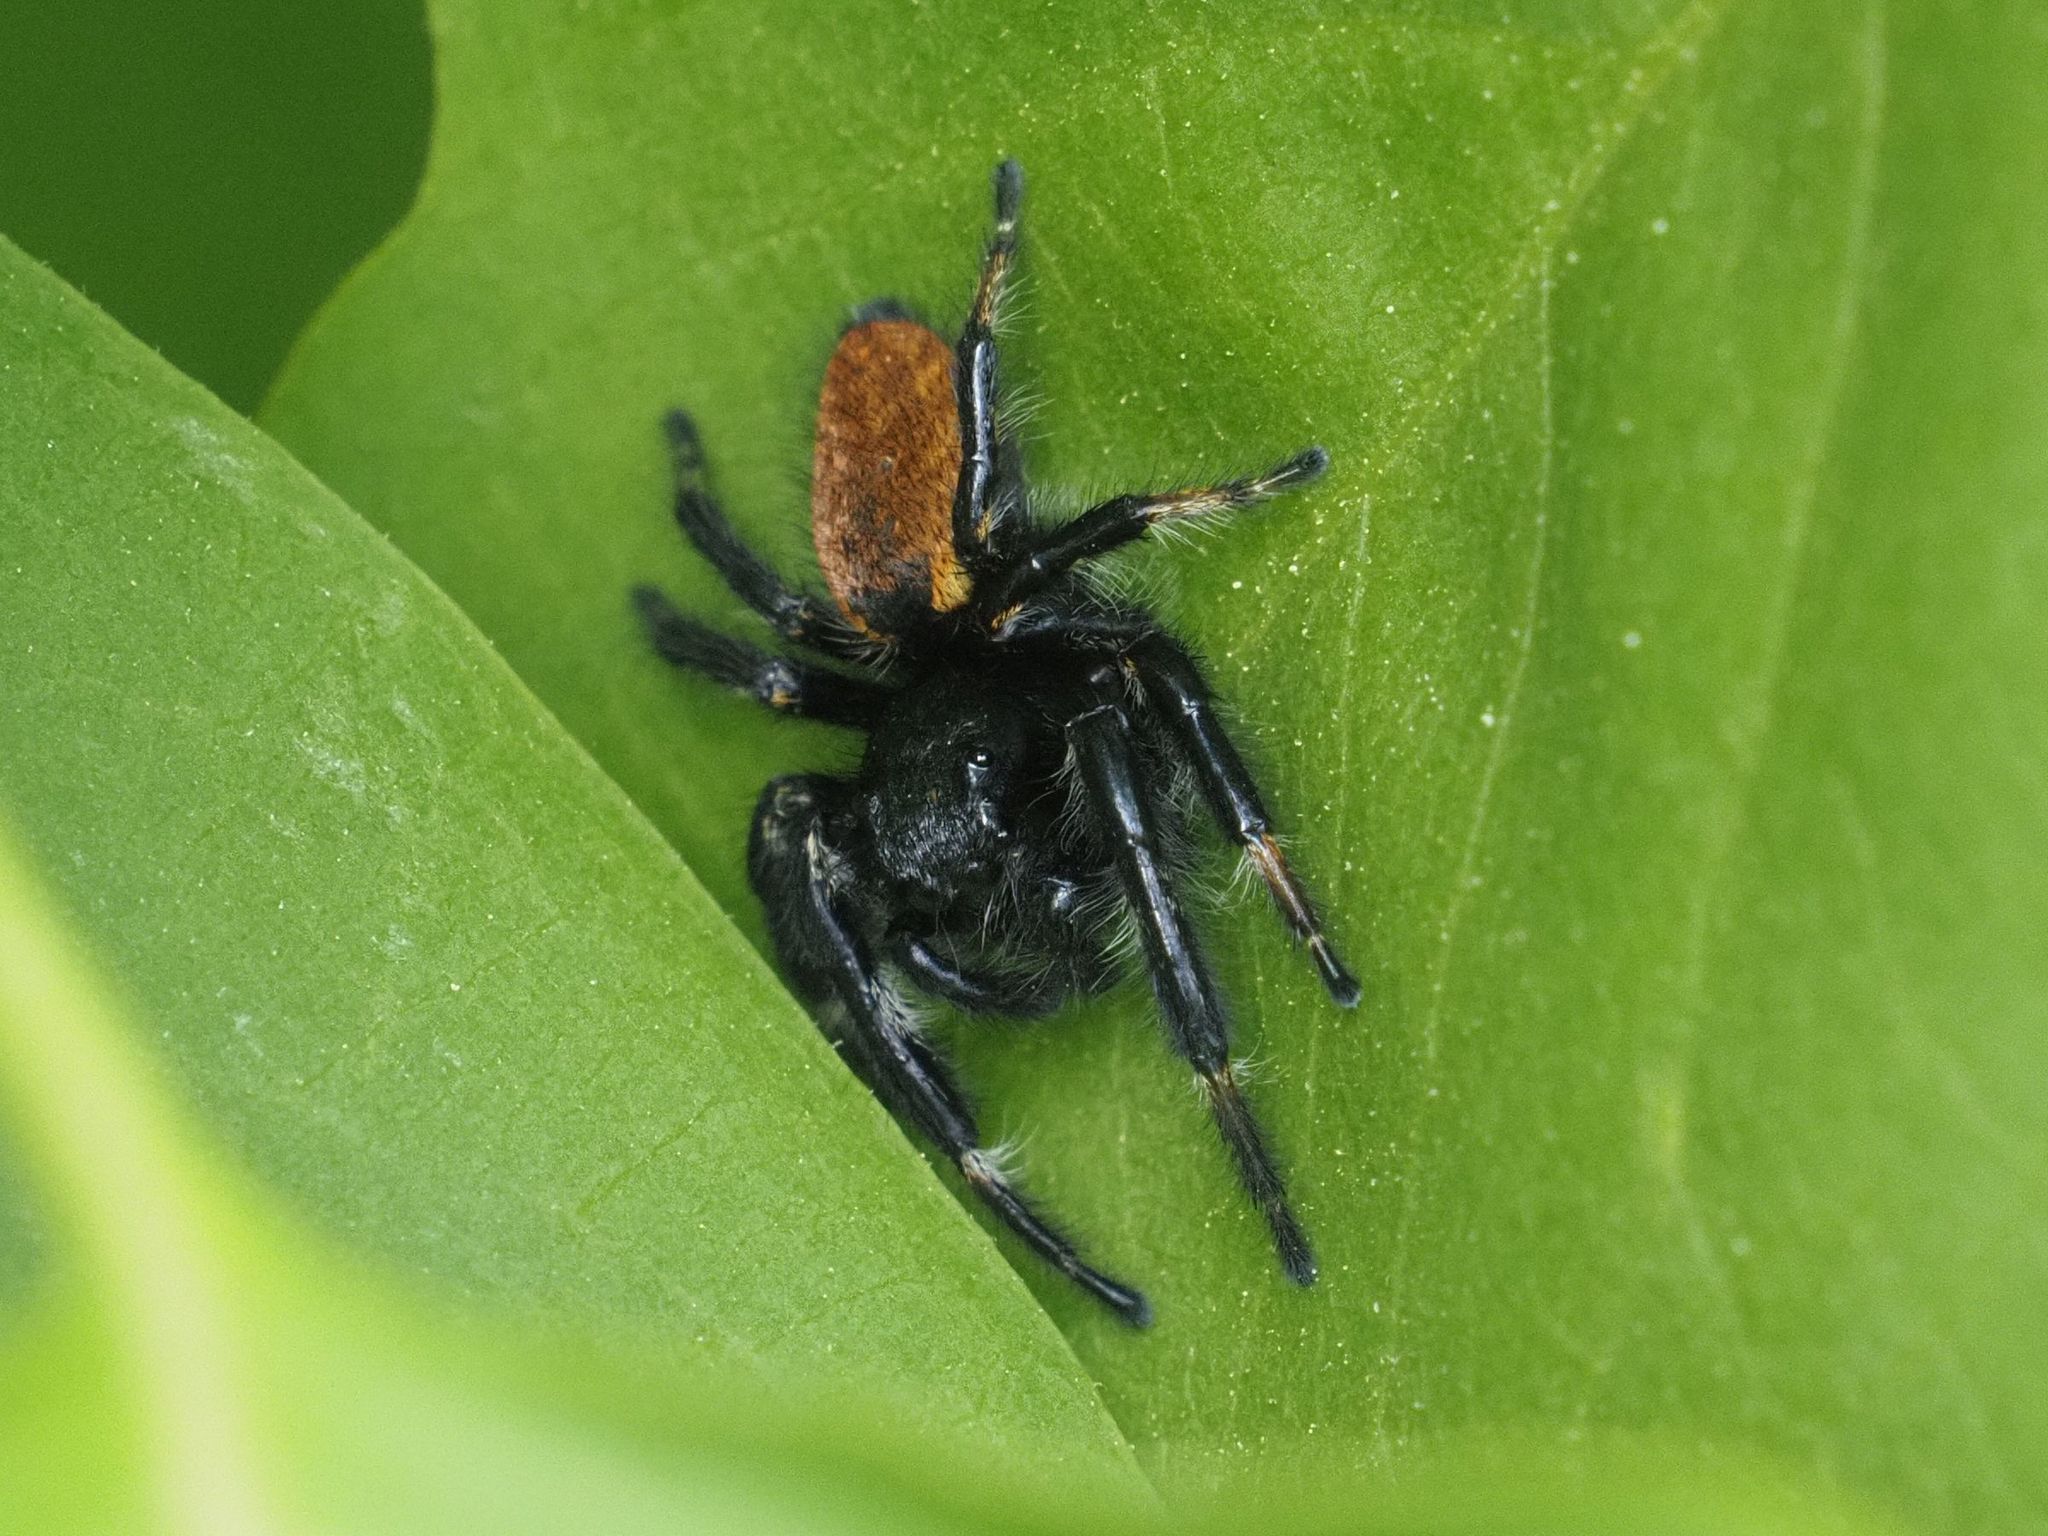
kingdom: Animalia
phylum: Arthropoda
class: Arachnida
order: Araneae
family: Salticidae
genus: Carrhotus
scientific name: Carrhotus xanthogramma
